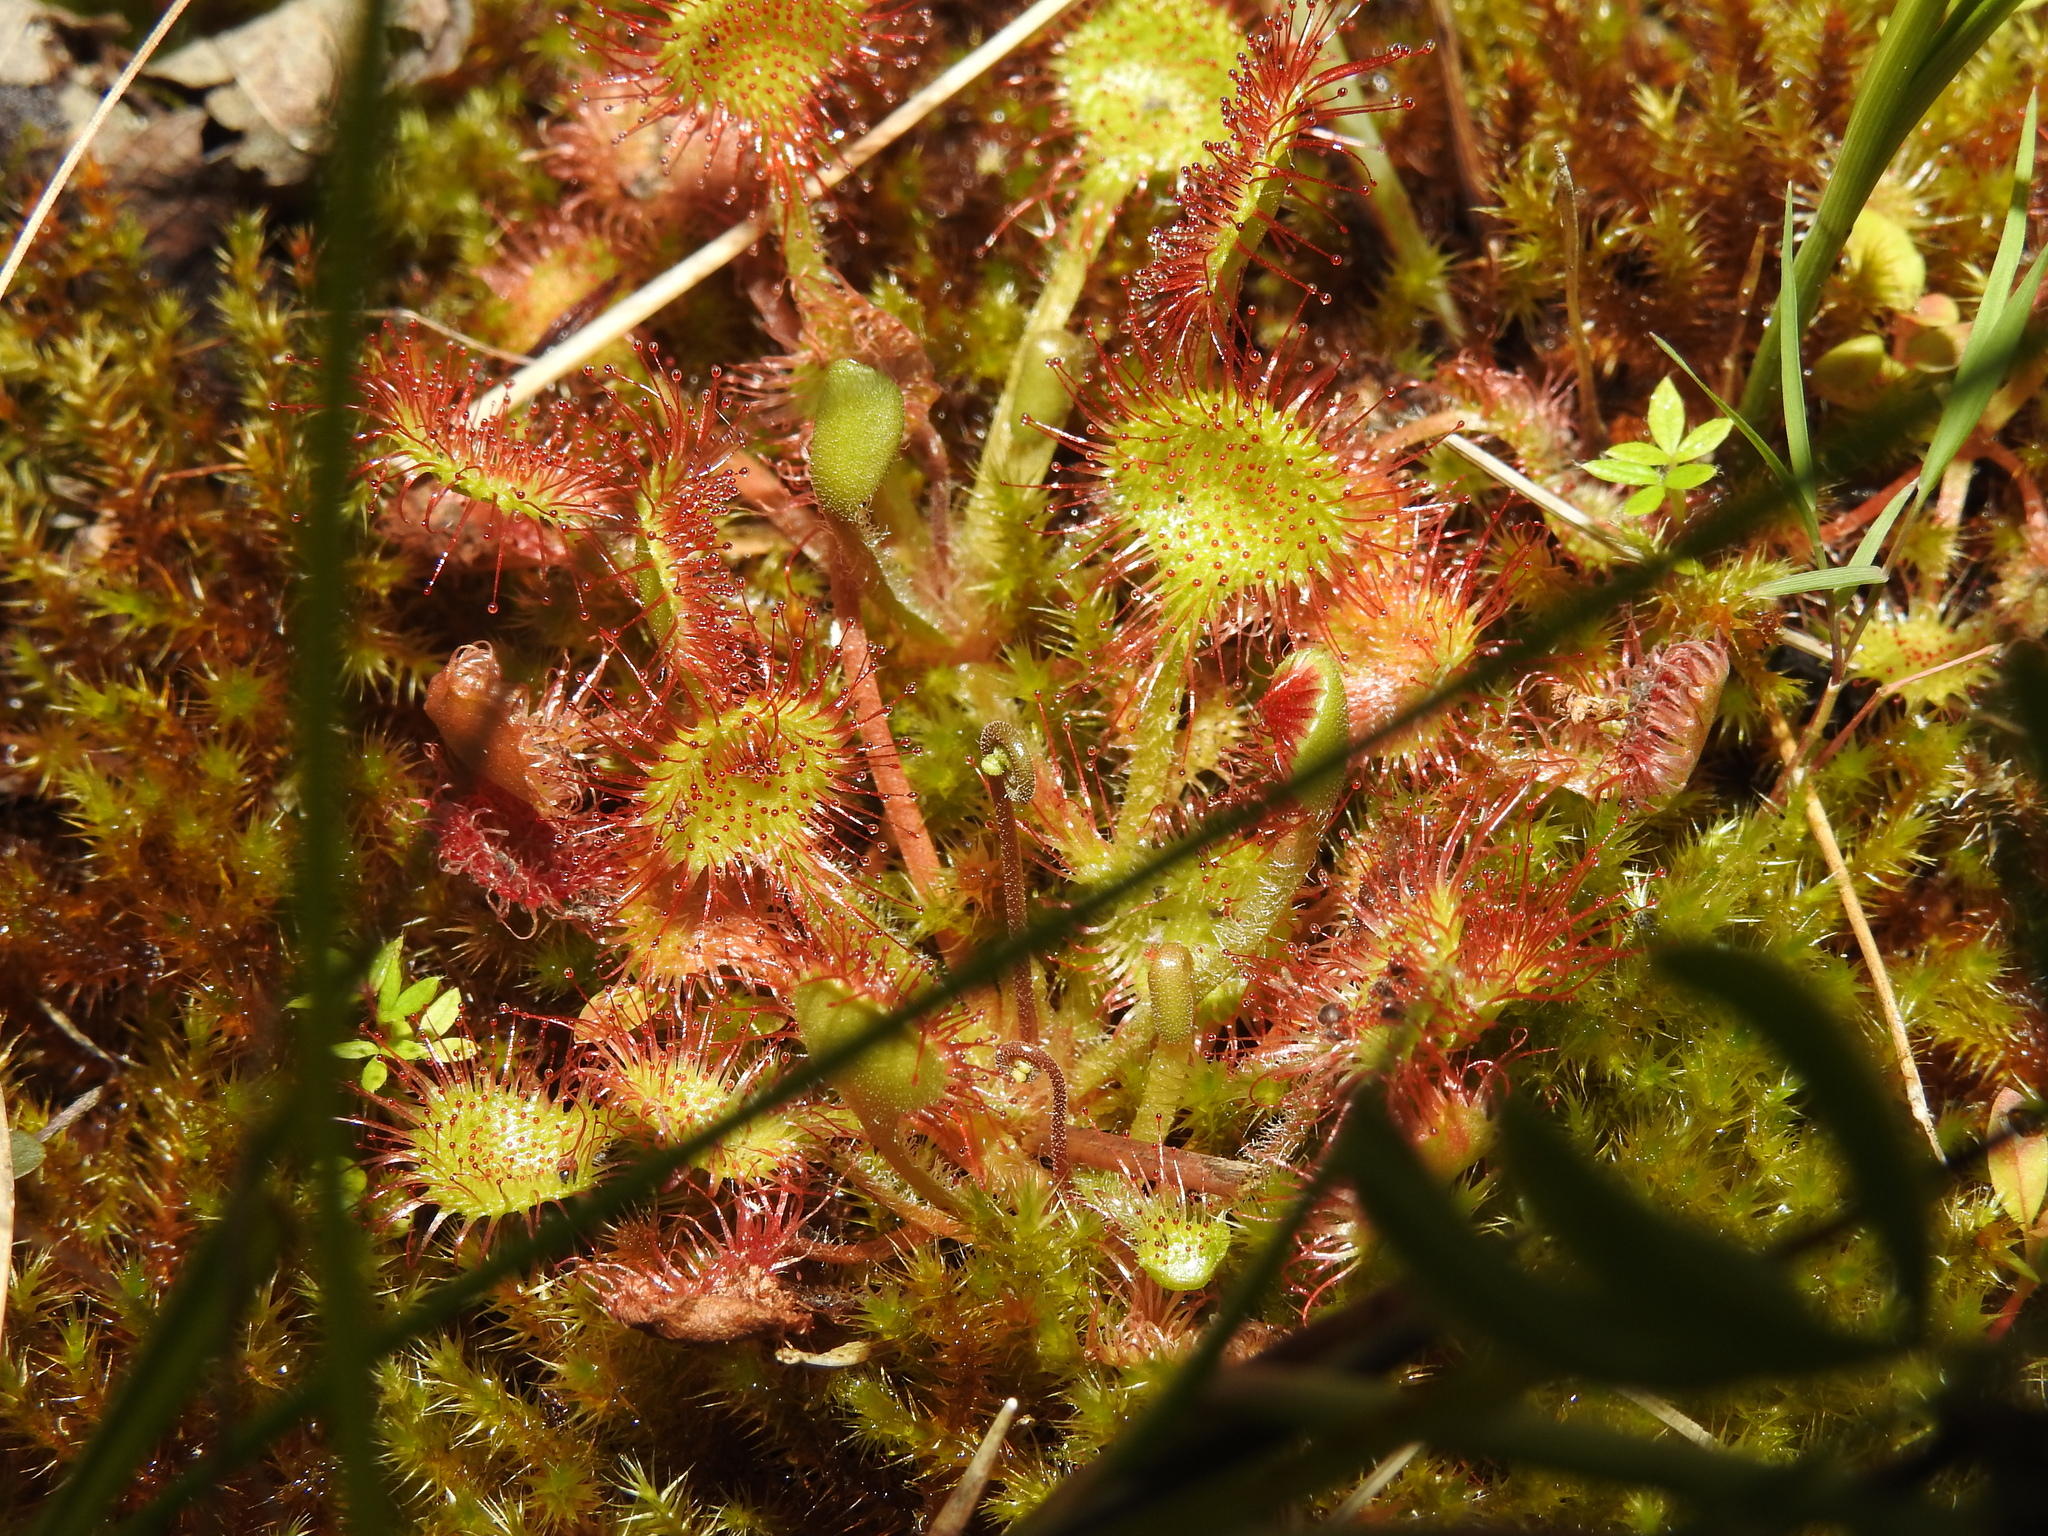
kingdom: Plantae
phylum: Tracheophyta
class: Magnoliopsida
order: Caryophyllales
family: Droseraceae
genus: Drosera
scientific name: Drosera rotundifolia
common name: Round-leaved sundew
